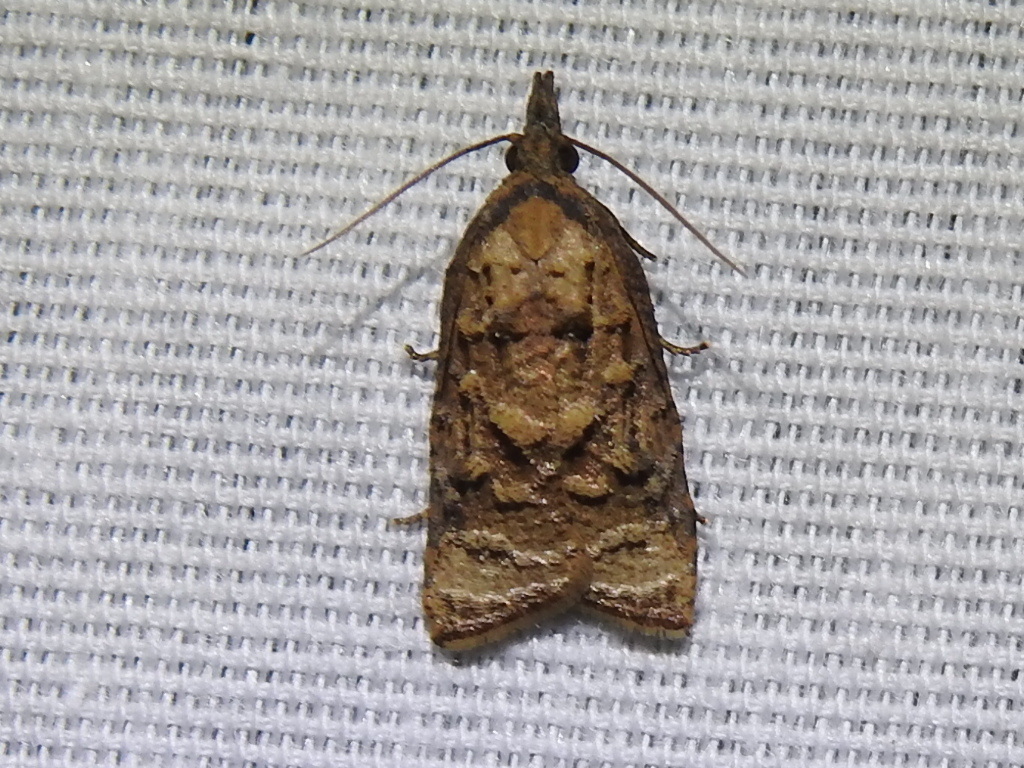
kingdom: Animalia
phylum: Arthropoda
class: Insecta
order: Lepidoptera
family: Tortricidae
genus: Platynota
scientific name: Platynota flavedana
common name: Black-shaded platynota moth
